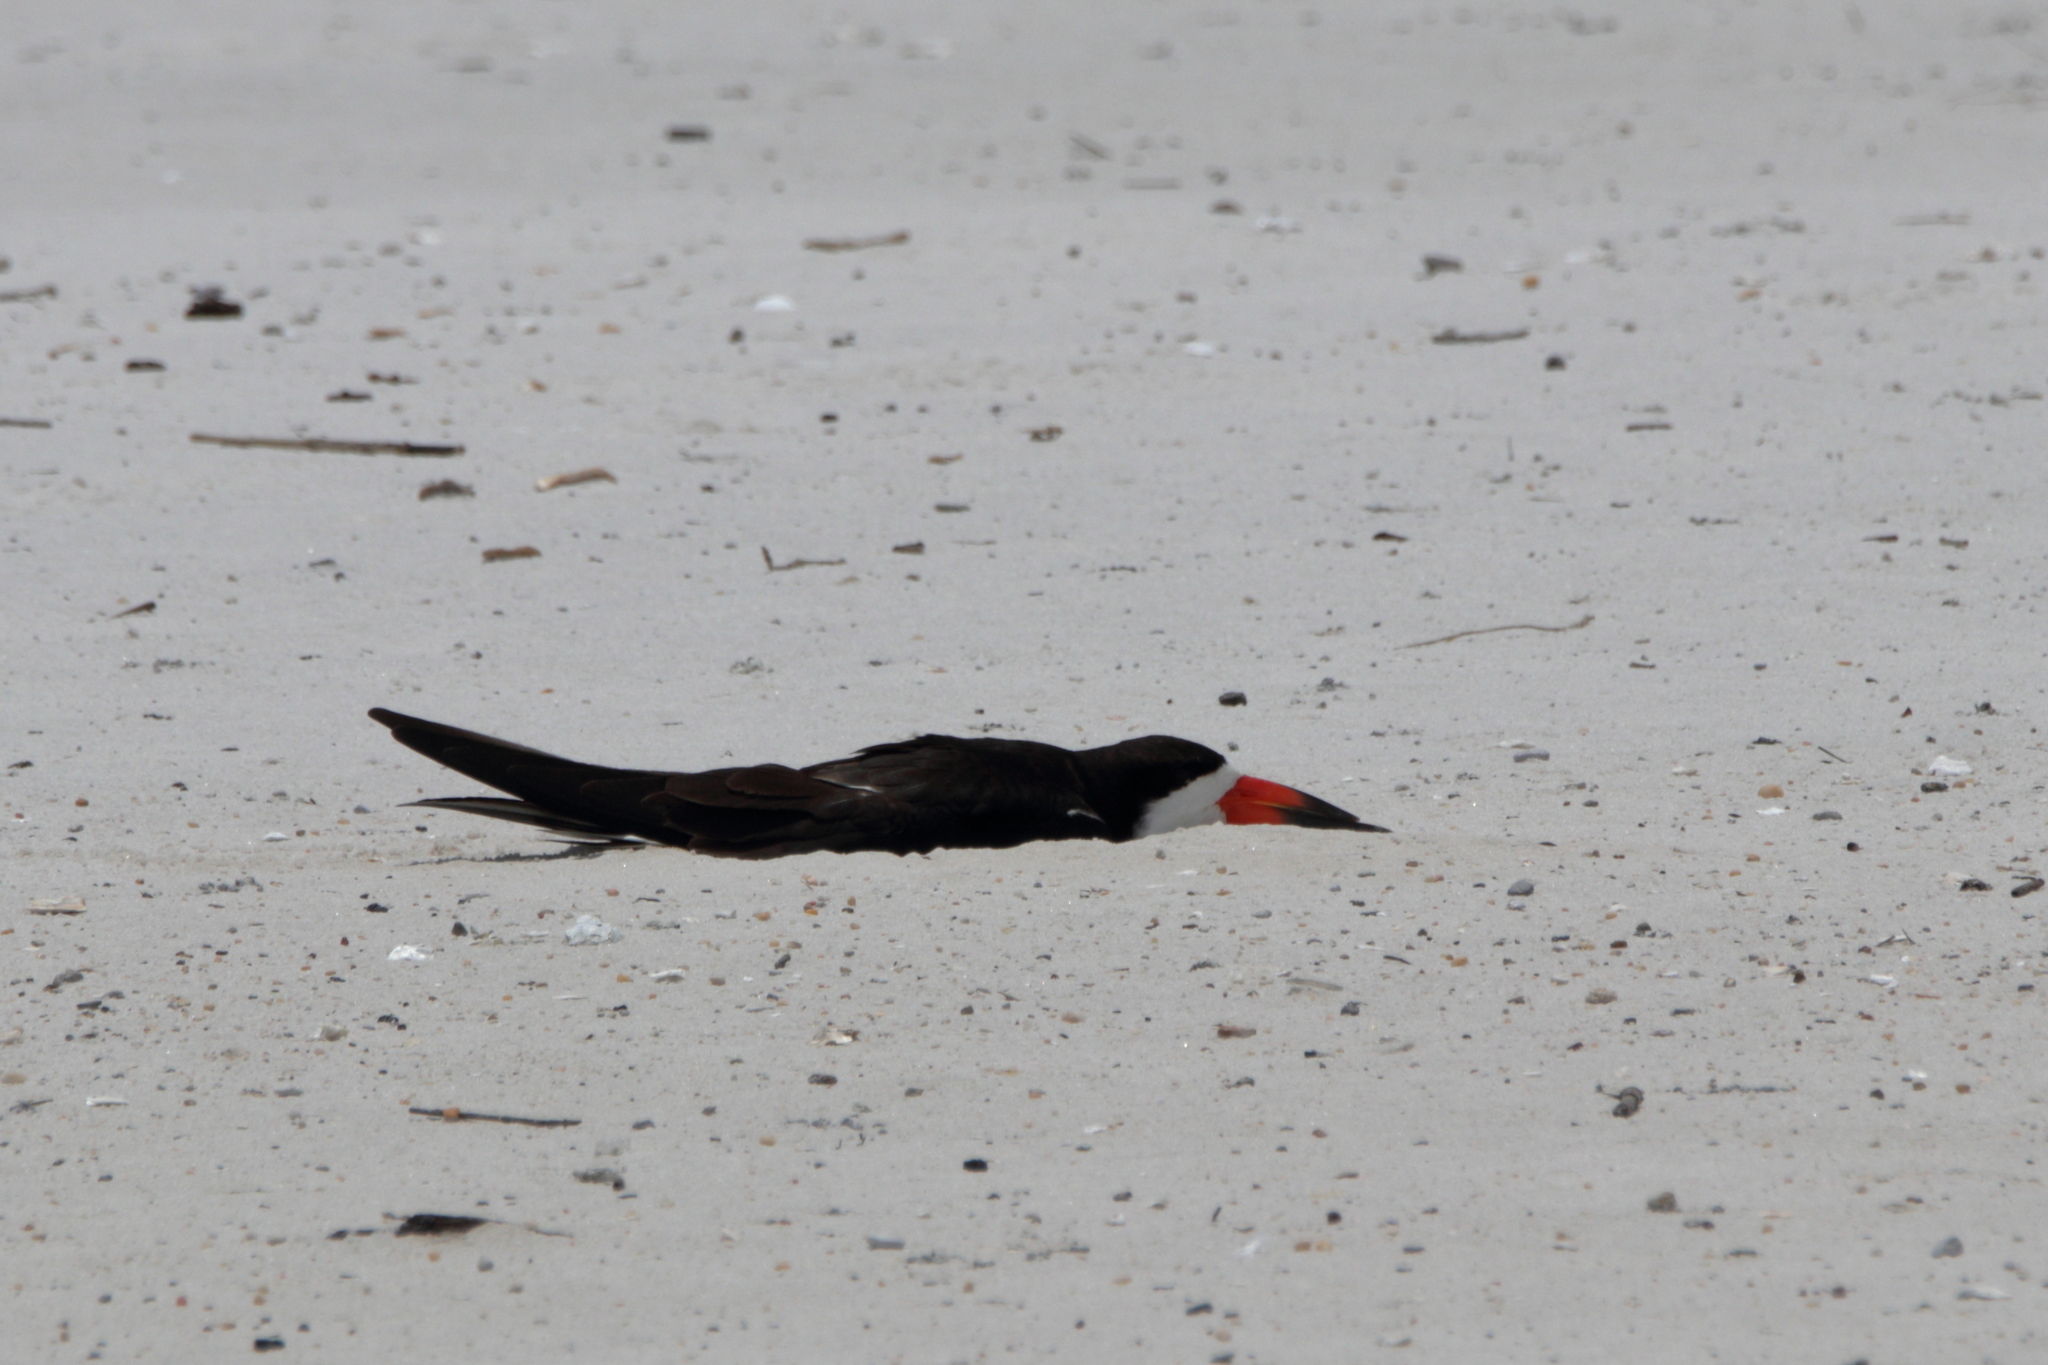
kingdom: Animalia
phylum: Chordata
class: Aves
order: Charadriiformes
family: Laridae
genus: Rynchops
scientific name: Rynchops niger
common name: Black skimmer
